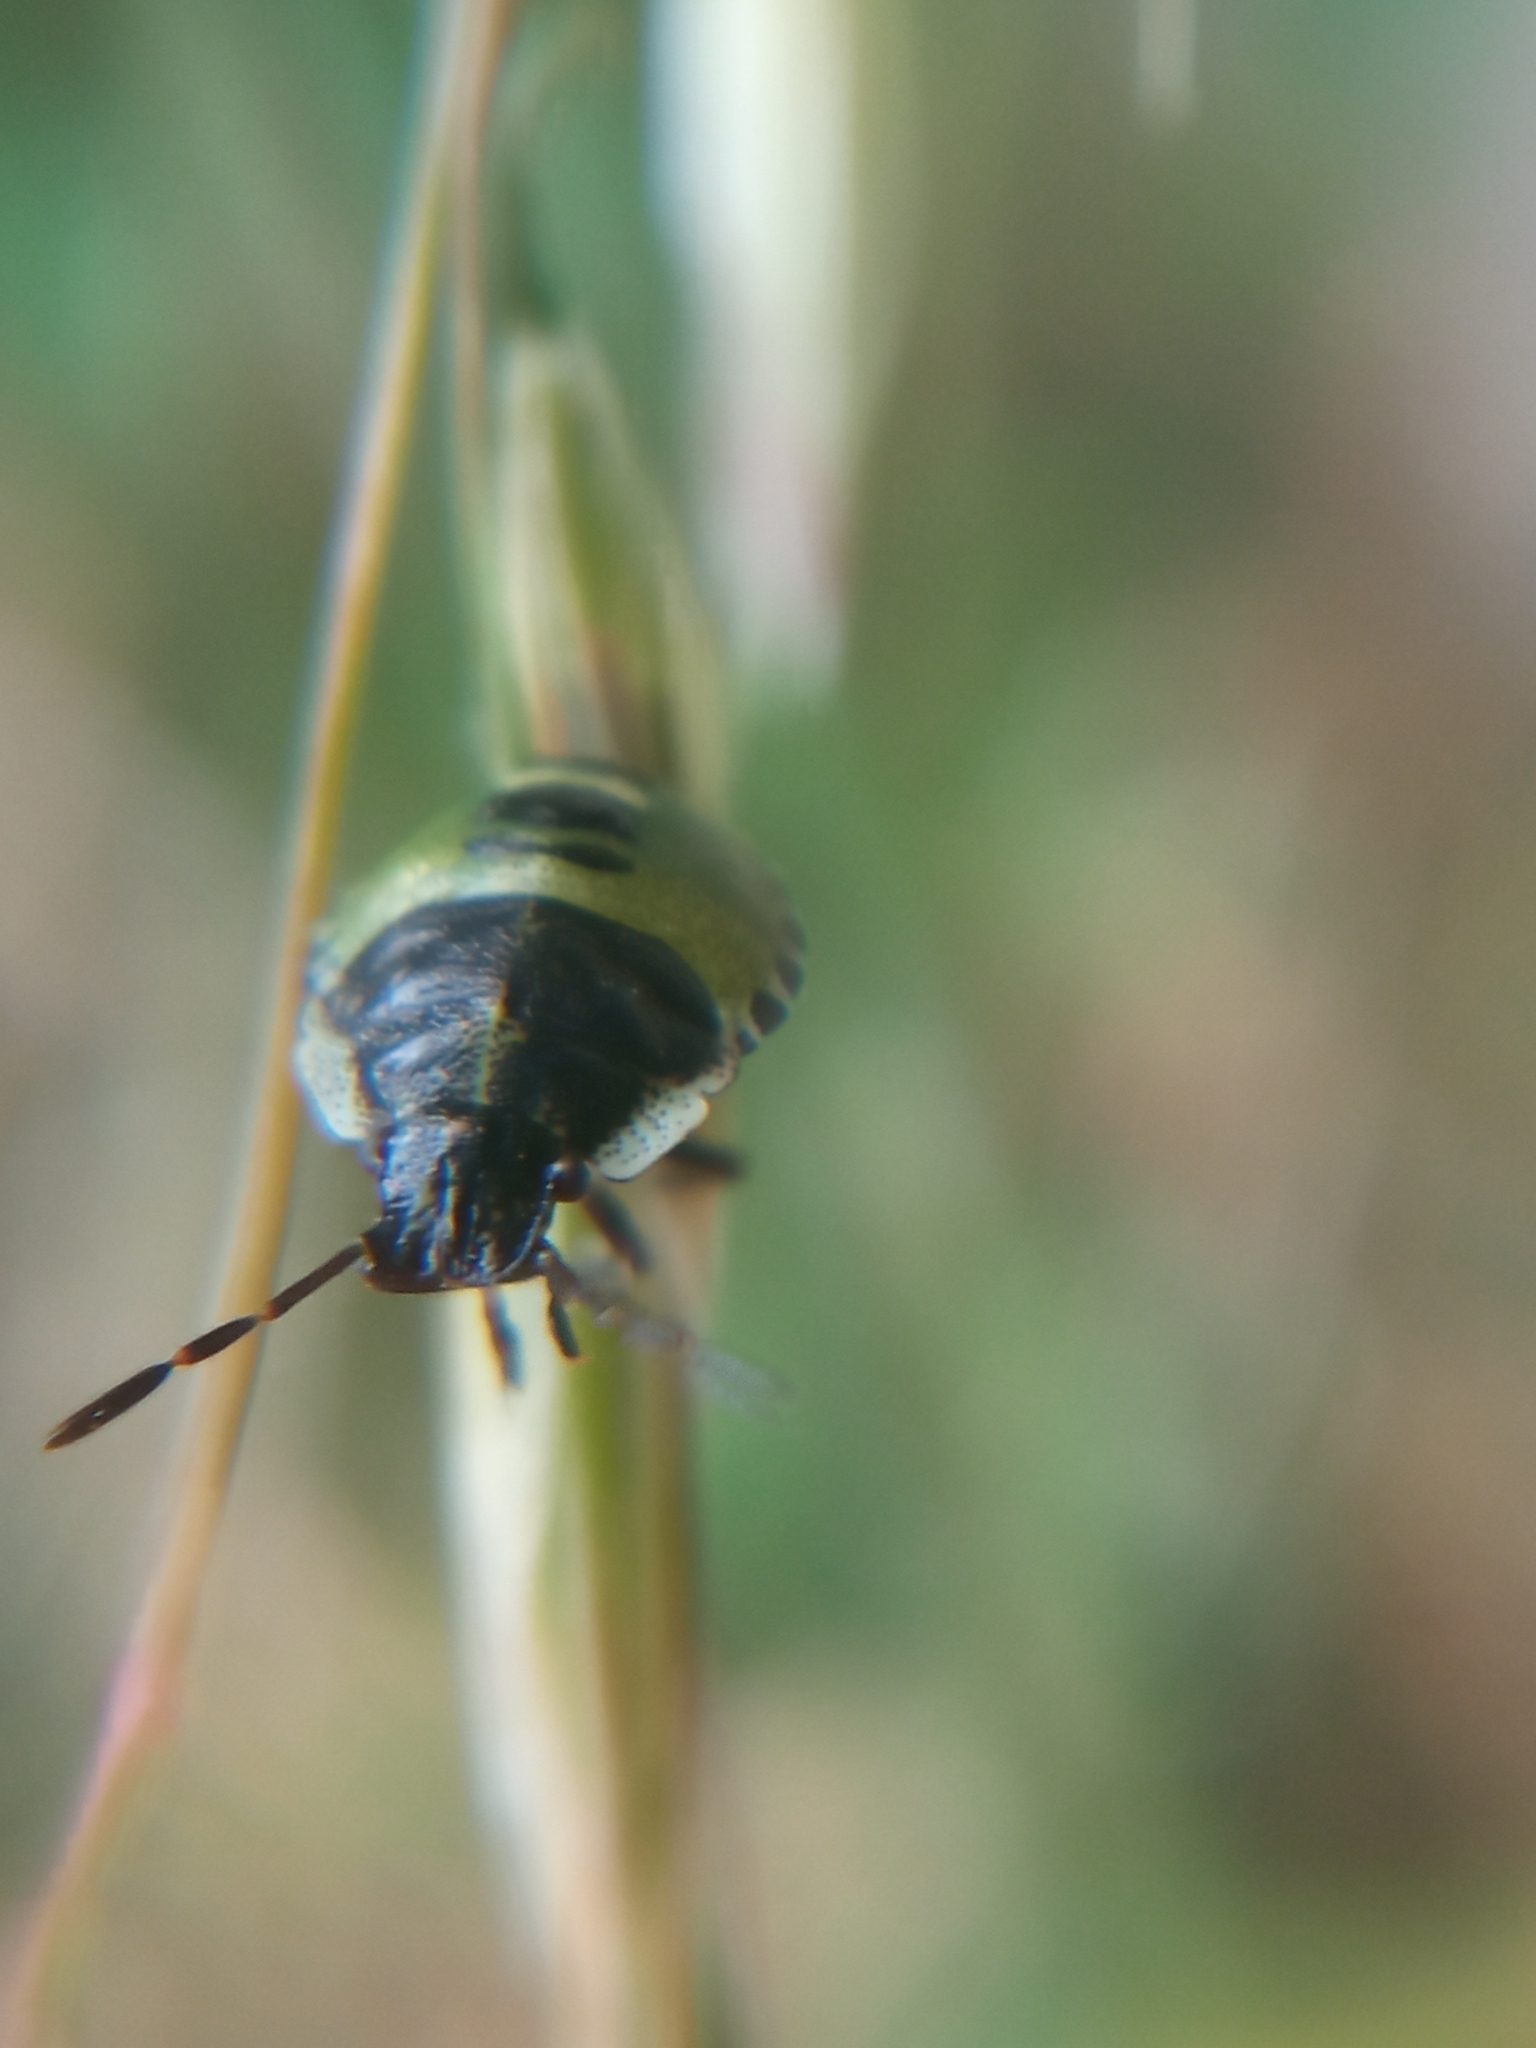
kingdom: Animalia
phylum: Arthropoda
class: Insecta
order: Hemiptera
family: Pentatomidae
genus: Palomena
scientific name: Palomena prasina
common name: Green shieldbug
